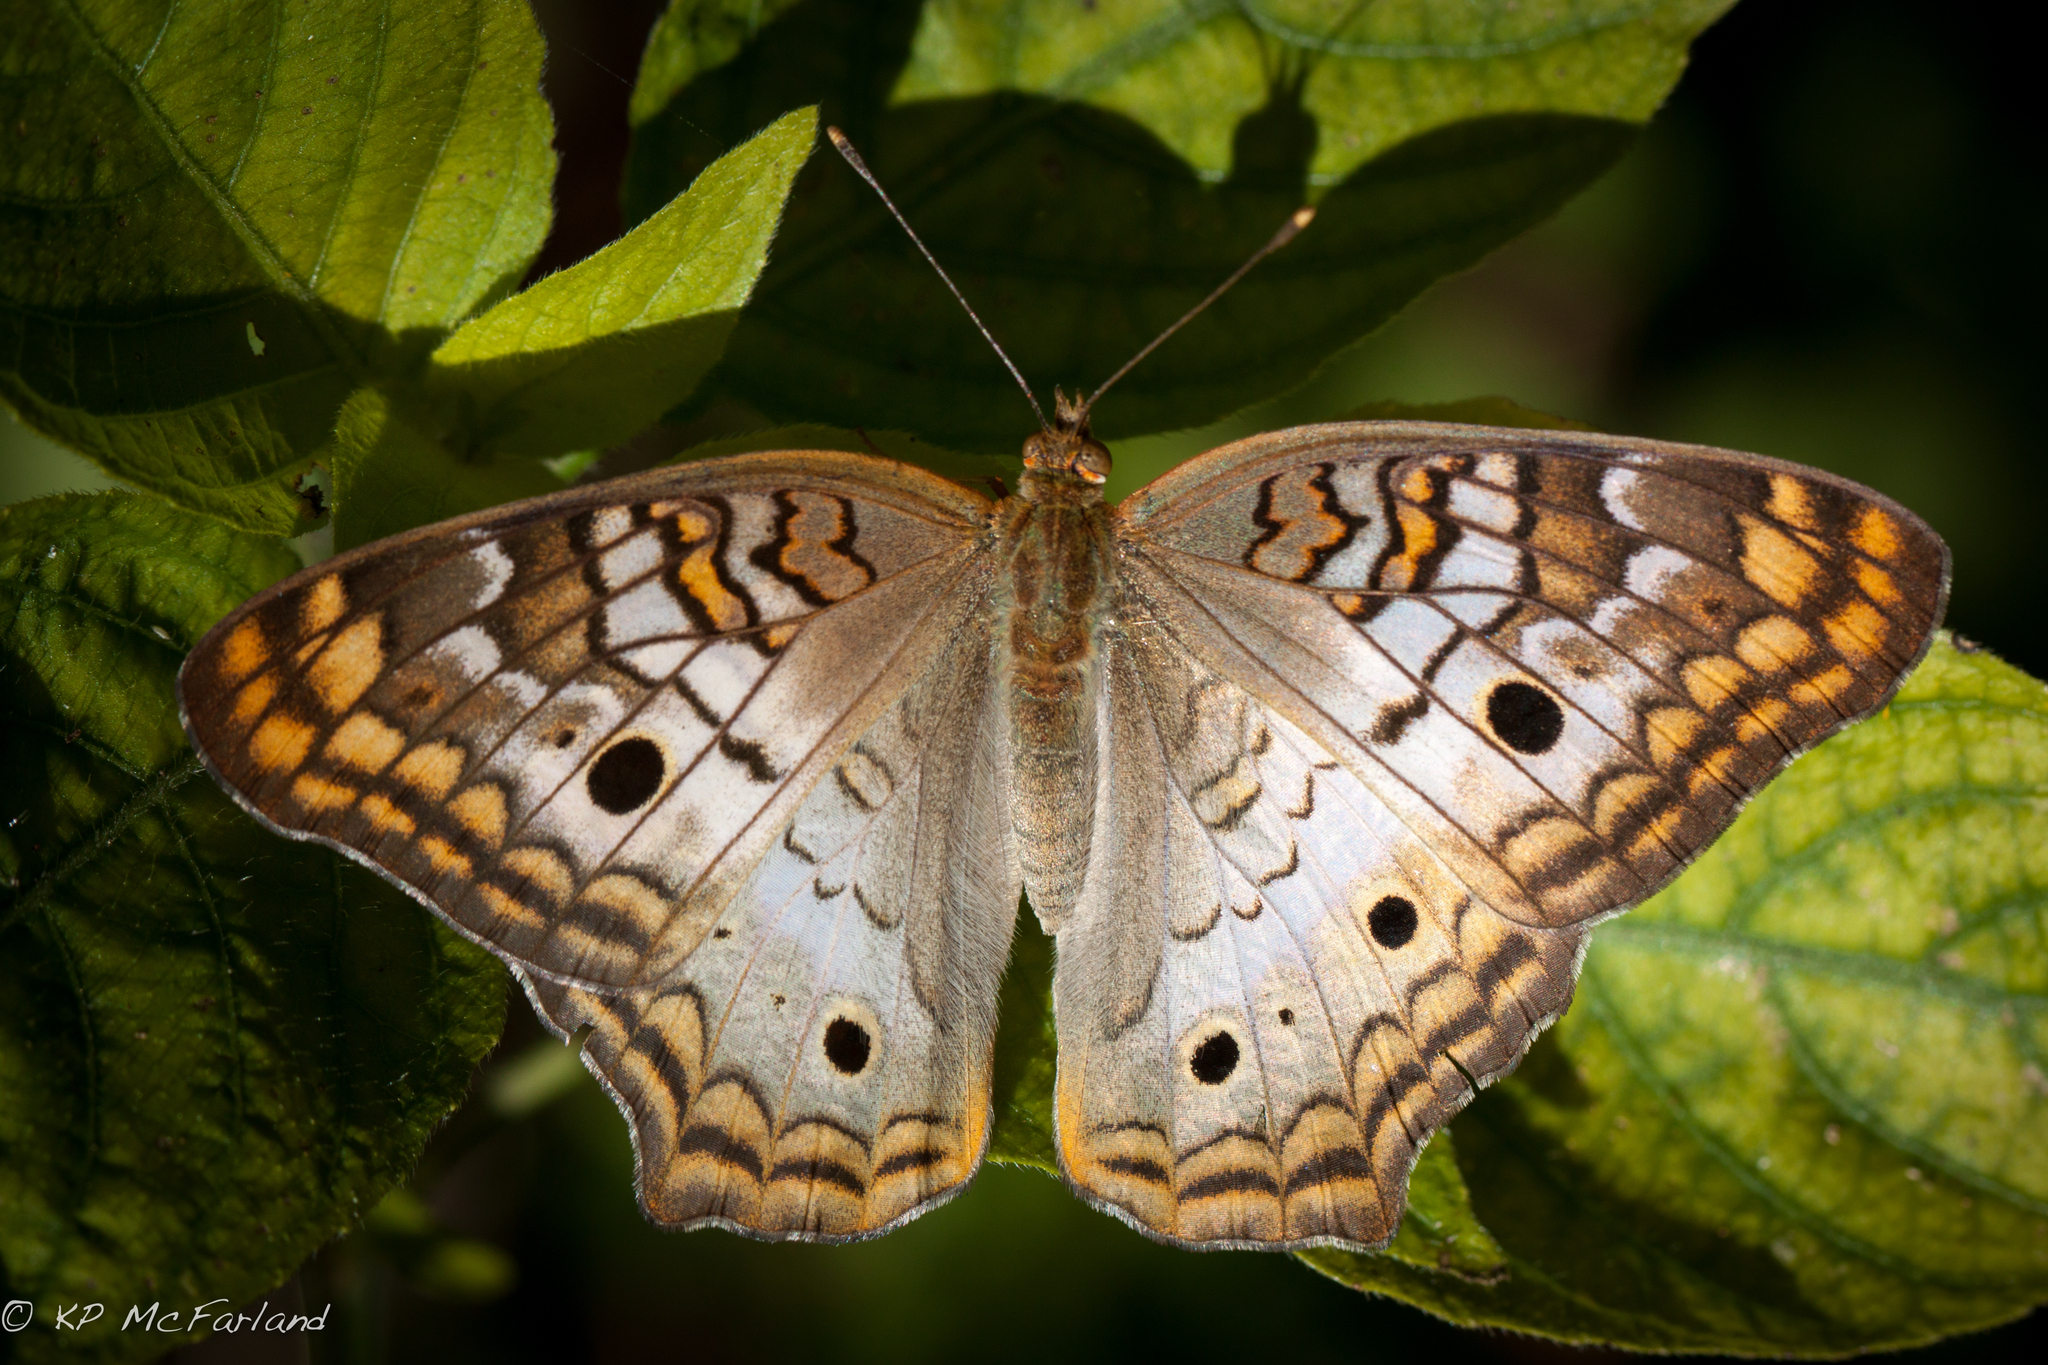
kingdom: Animalia
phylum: Arthropoda
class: Insecta
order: Lepidoptera
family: Nymphalidae
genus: Anartia
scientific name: Anartia jatrophae
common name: White peacock
